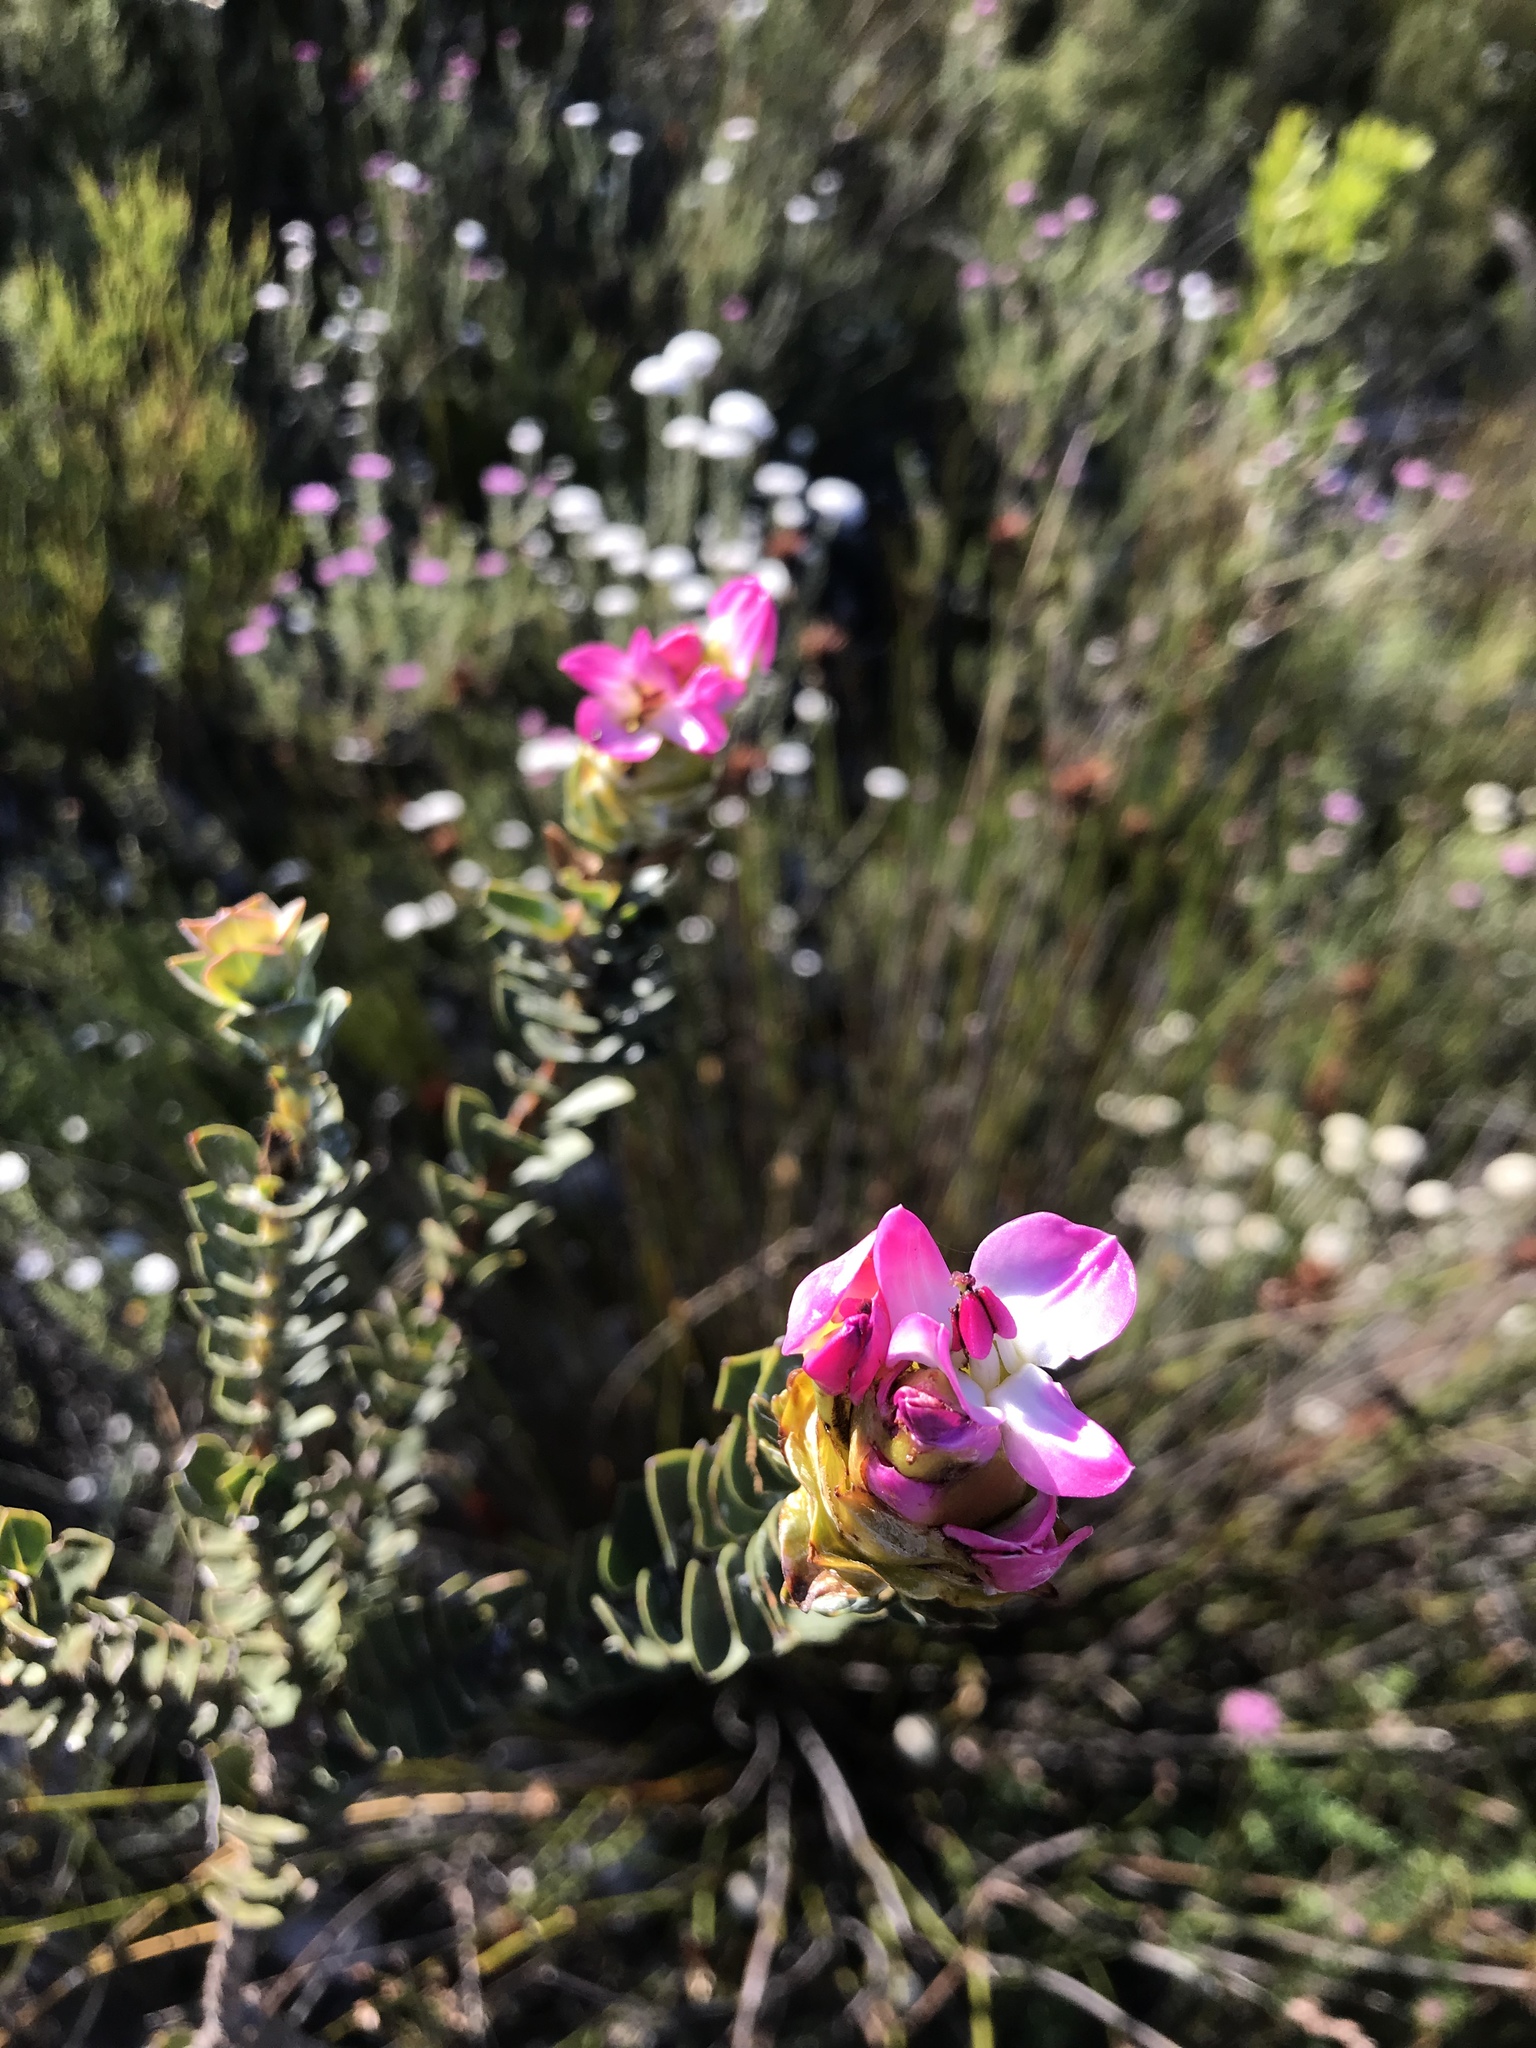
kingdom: Plantae
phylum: Tracheophyta
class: Magnoliopsida
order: Myrtales
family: Penaeaceae
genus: Saltera
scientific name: Saltera sarcocolla
